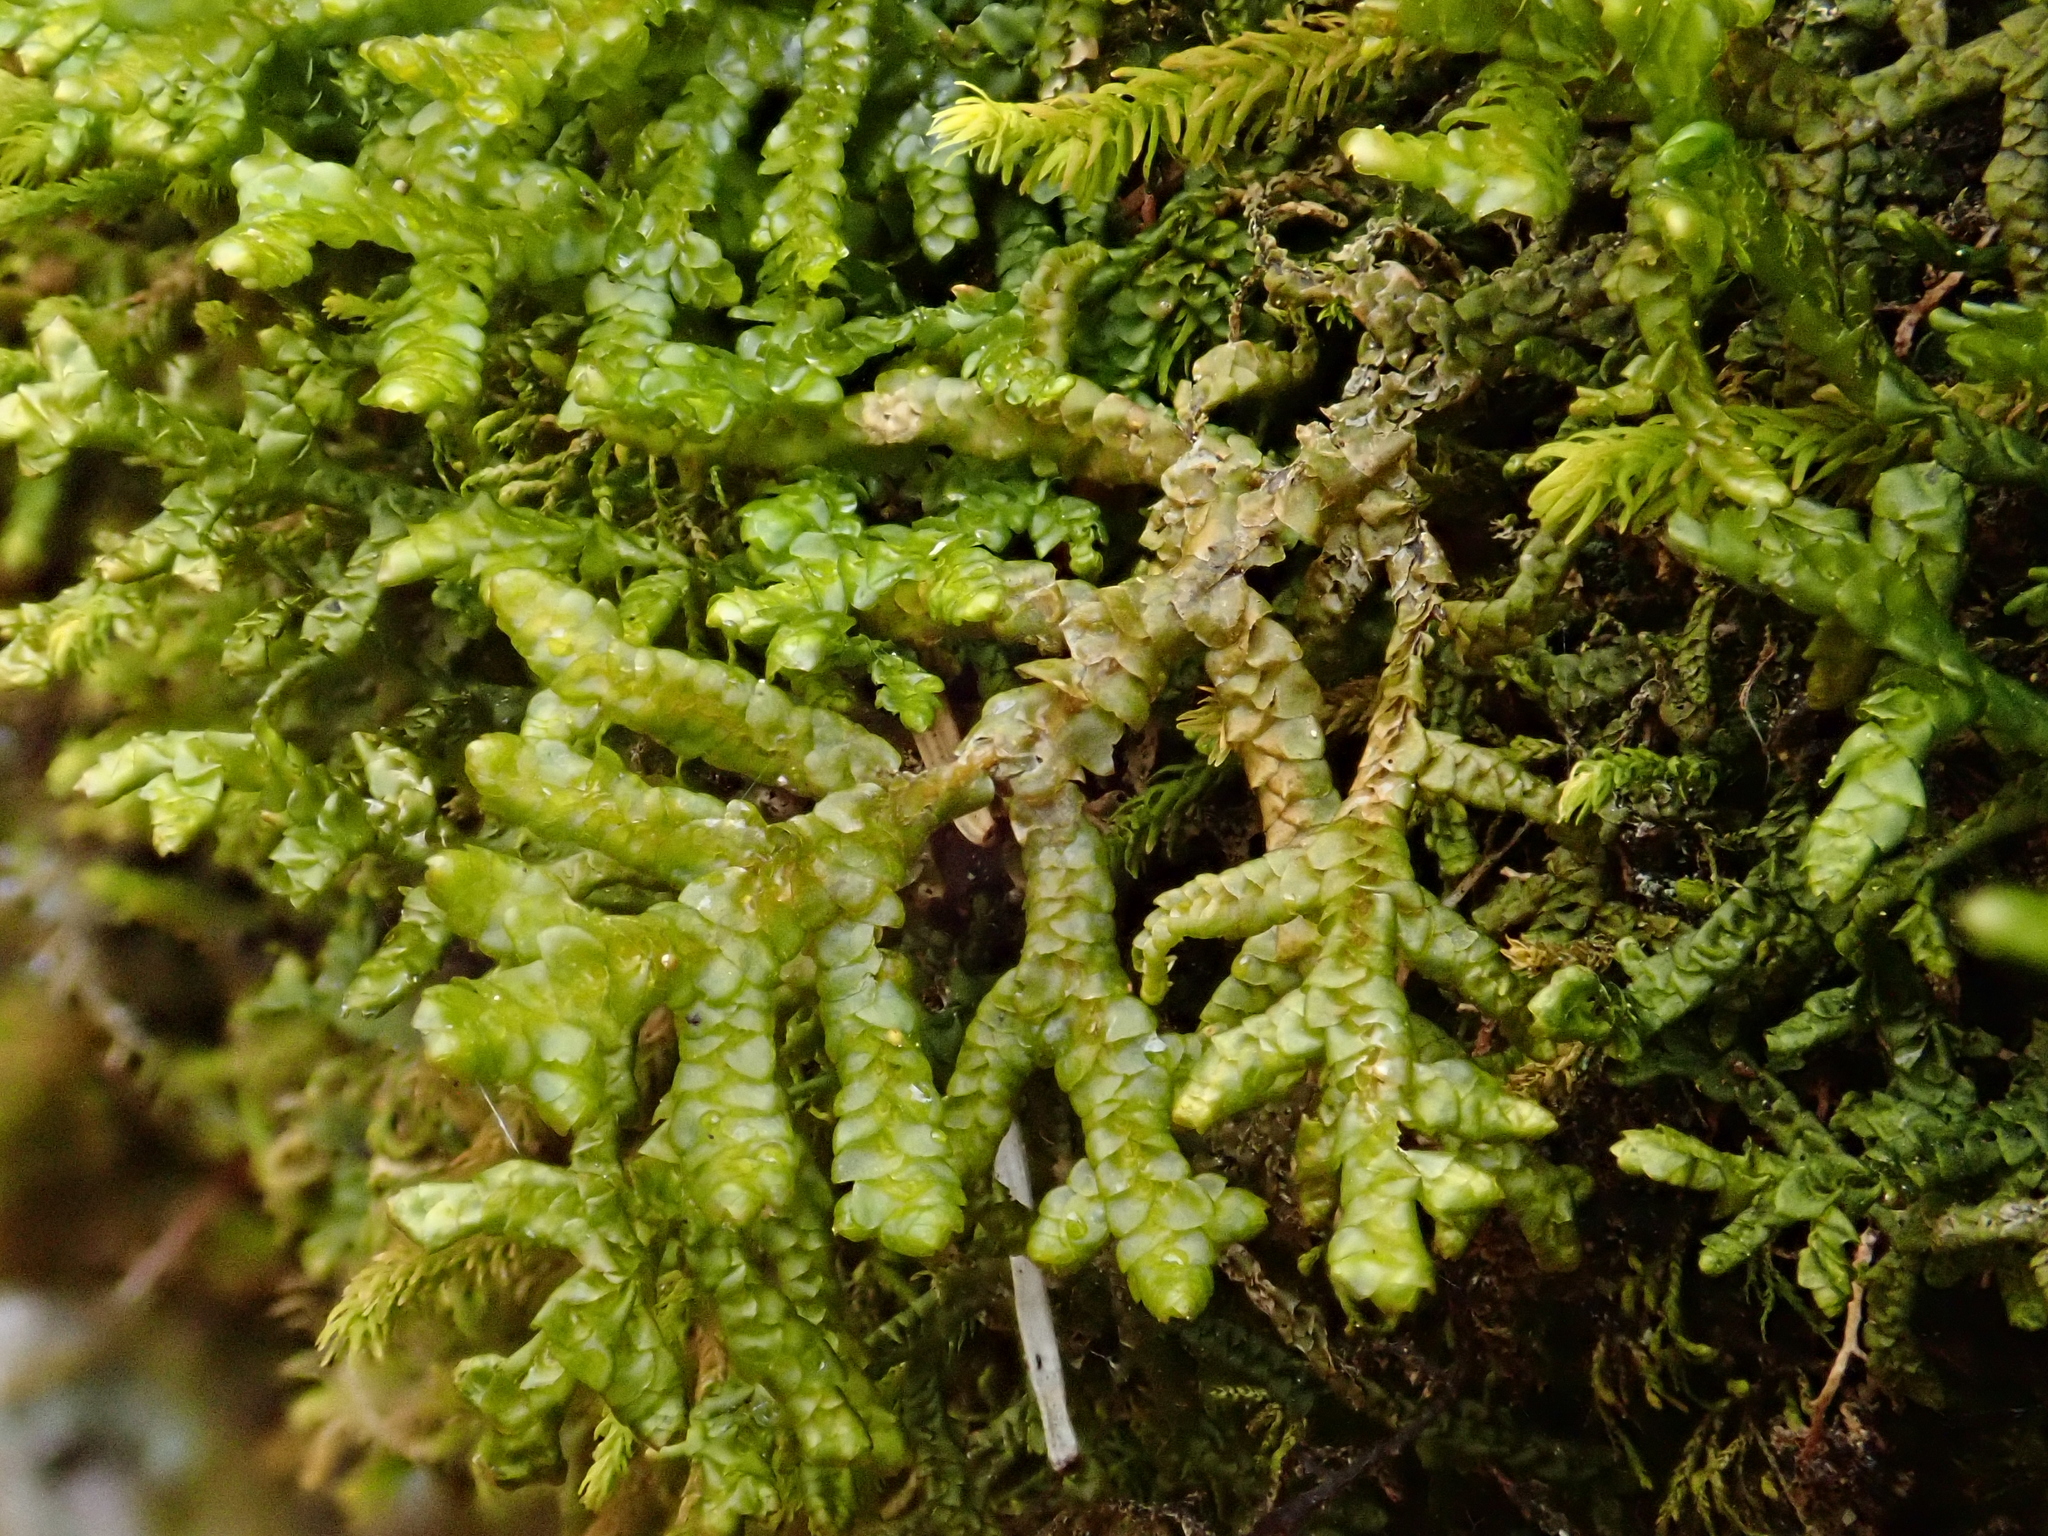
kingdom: Plantae
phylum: Marchantiophyta
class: Jungermanniopsida
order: Porellales
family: Porellaceae
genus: Porella
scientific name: Porella platyphylla
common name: Wall scalewort
